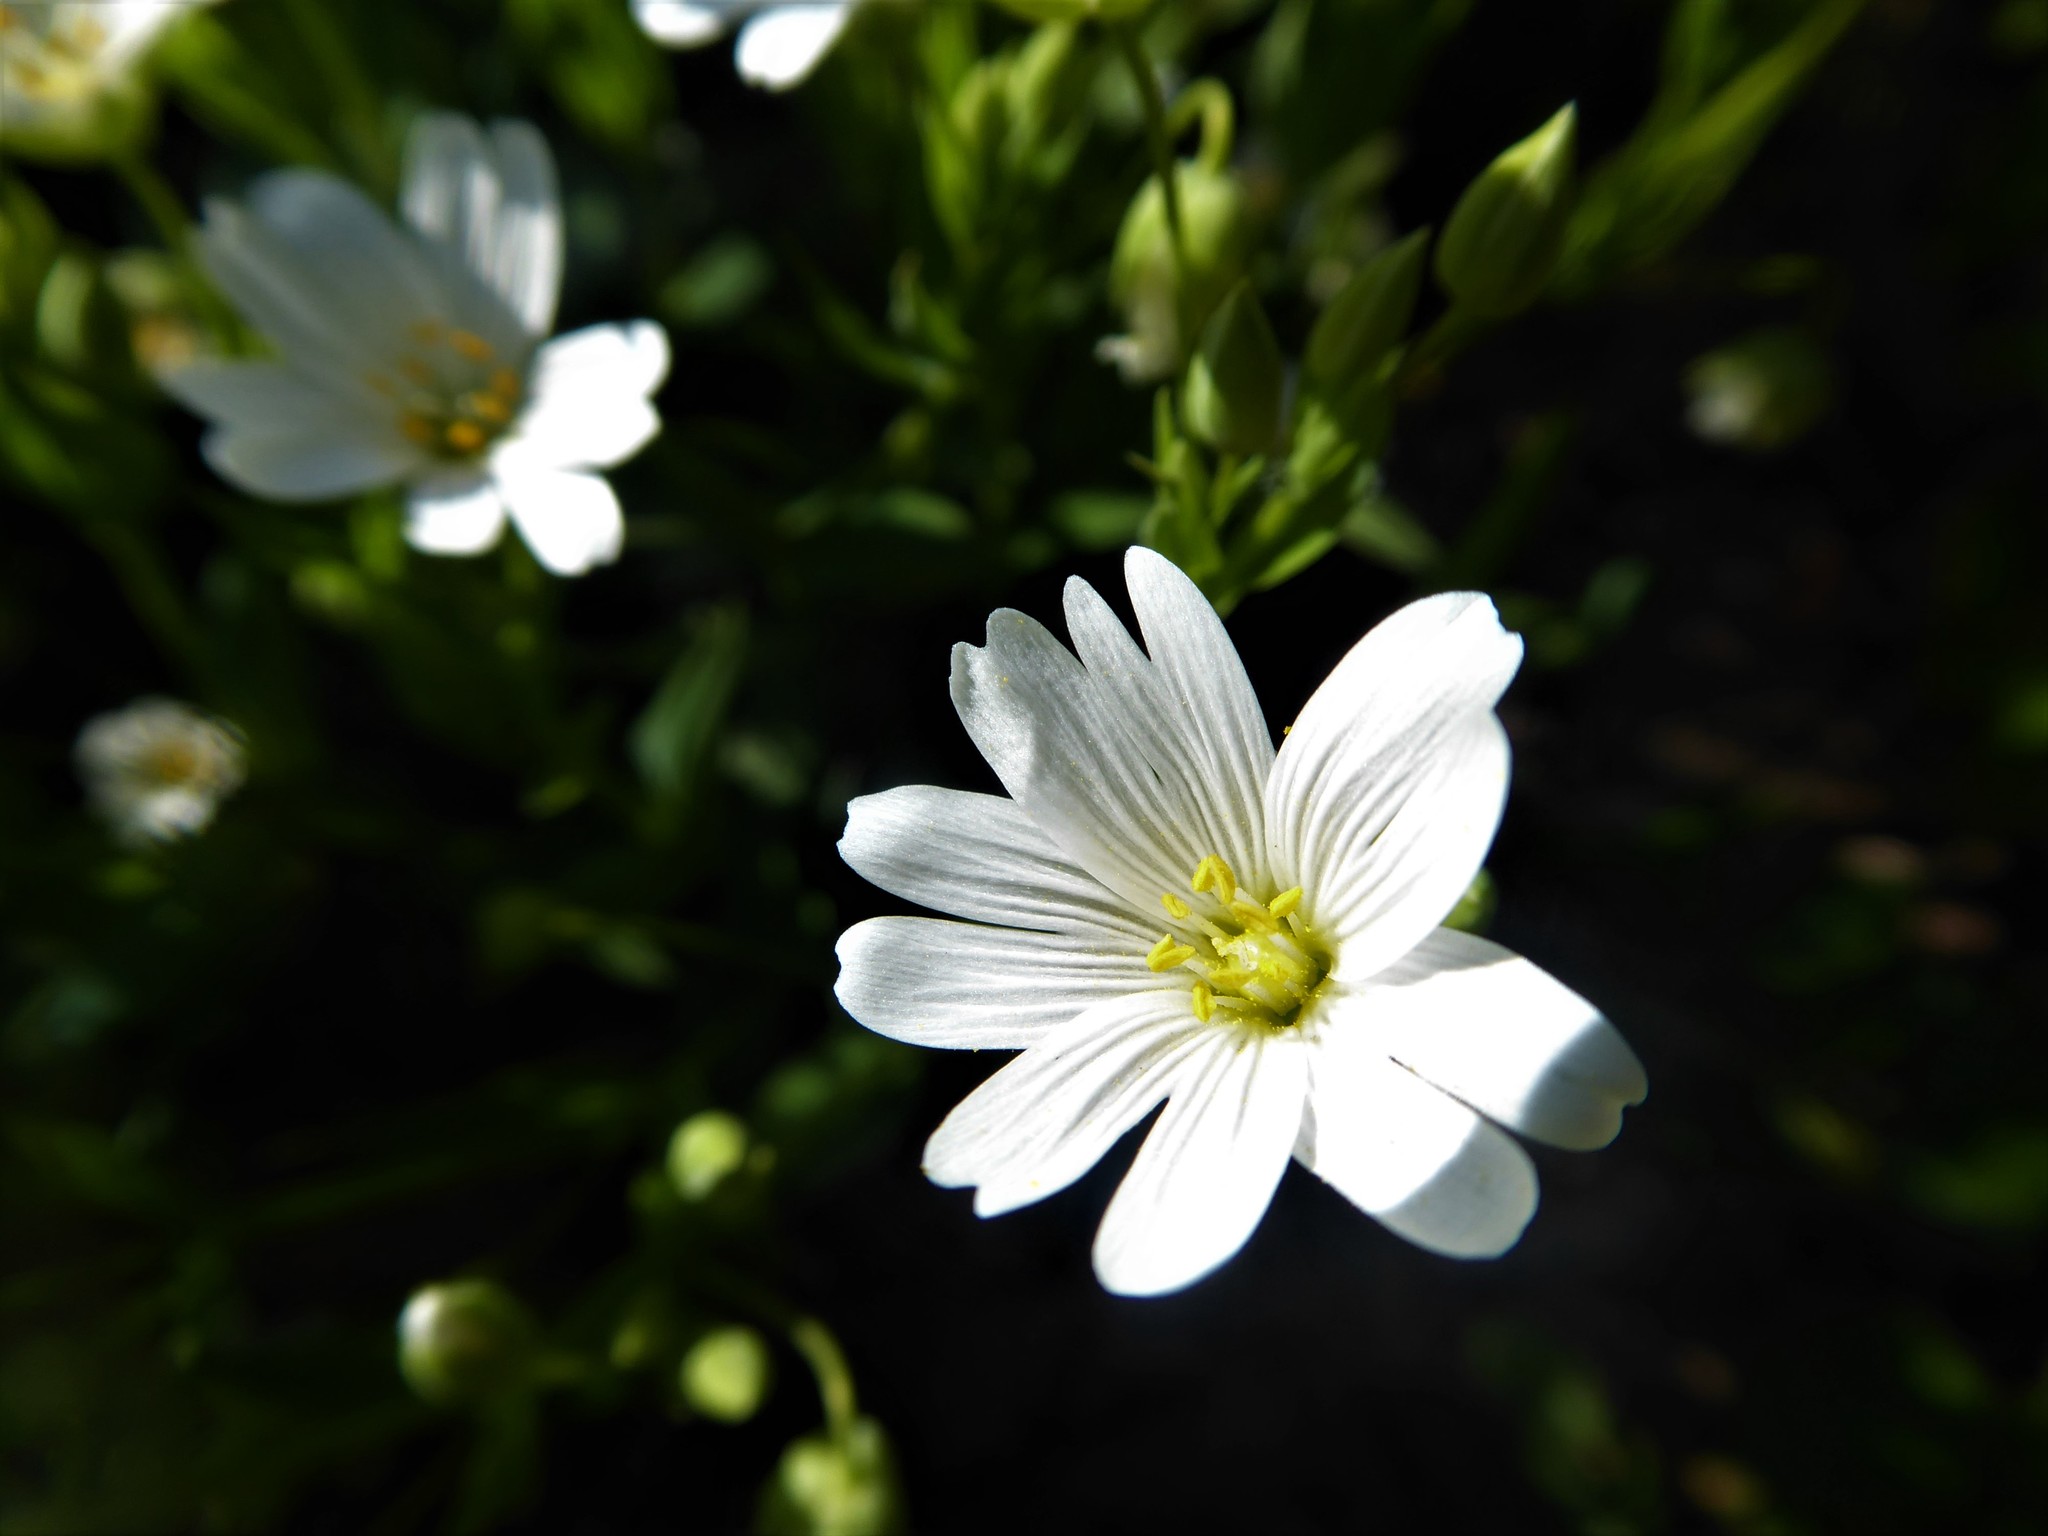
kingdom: Plantae
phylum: Tracheophyta
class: Magnoliopsida
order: Caryophyllales
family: Caryophyllaceae
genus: Rabelera
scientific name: Rabelera holostea
